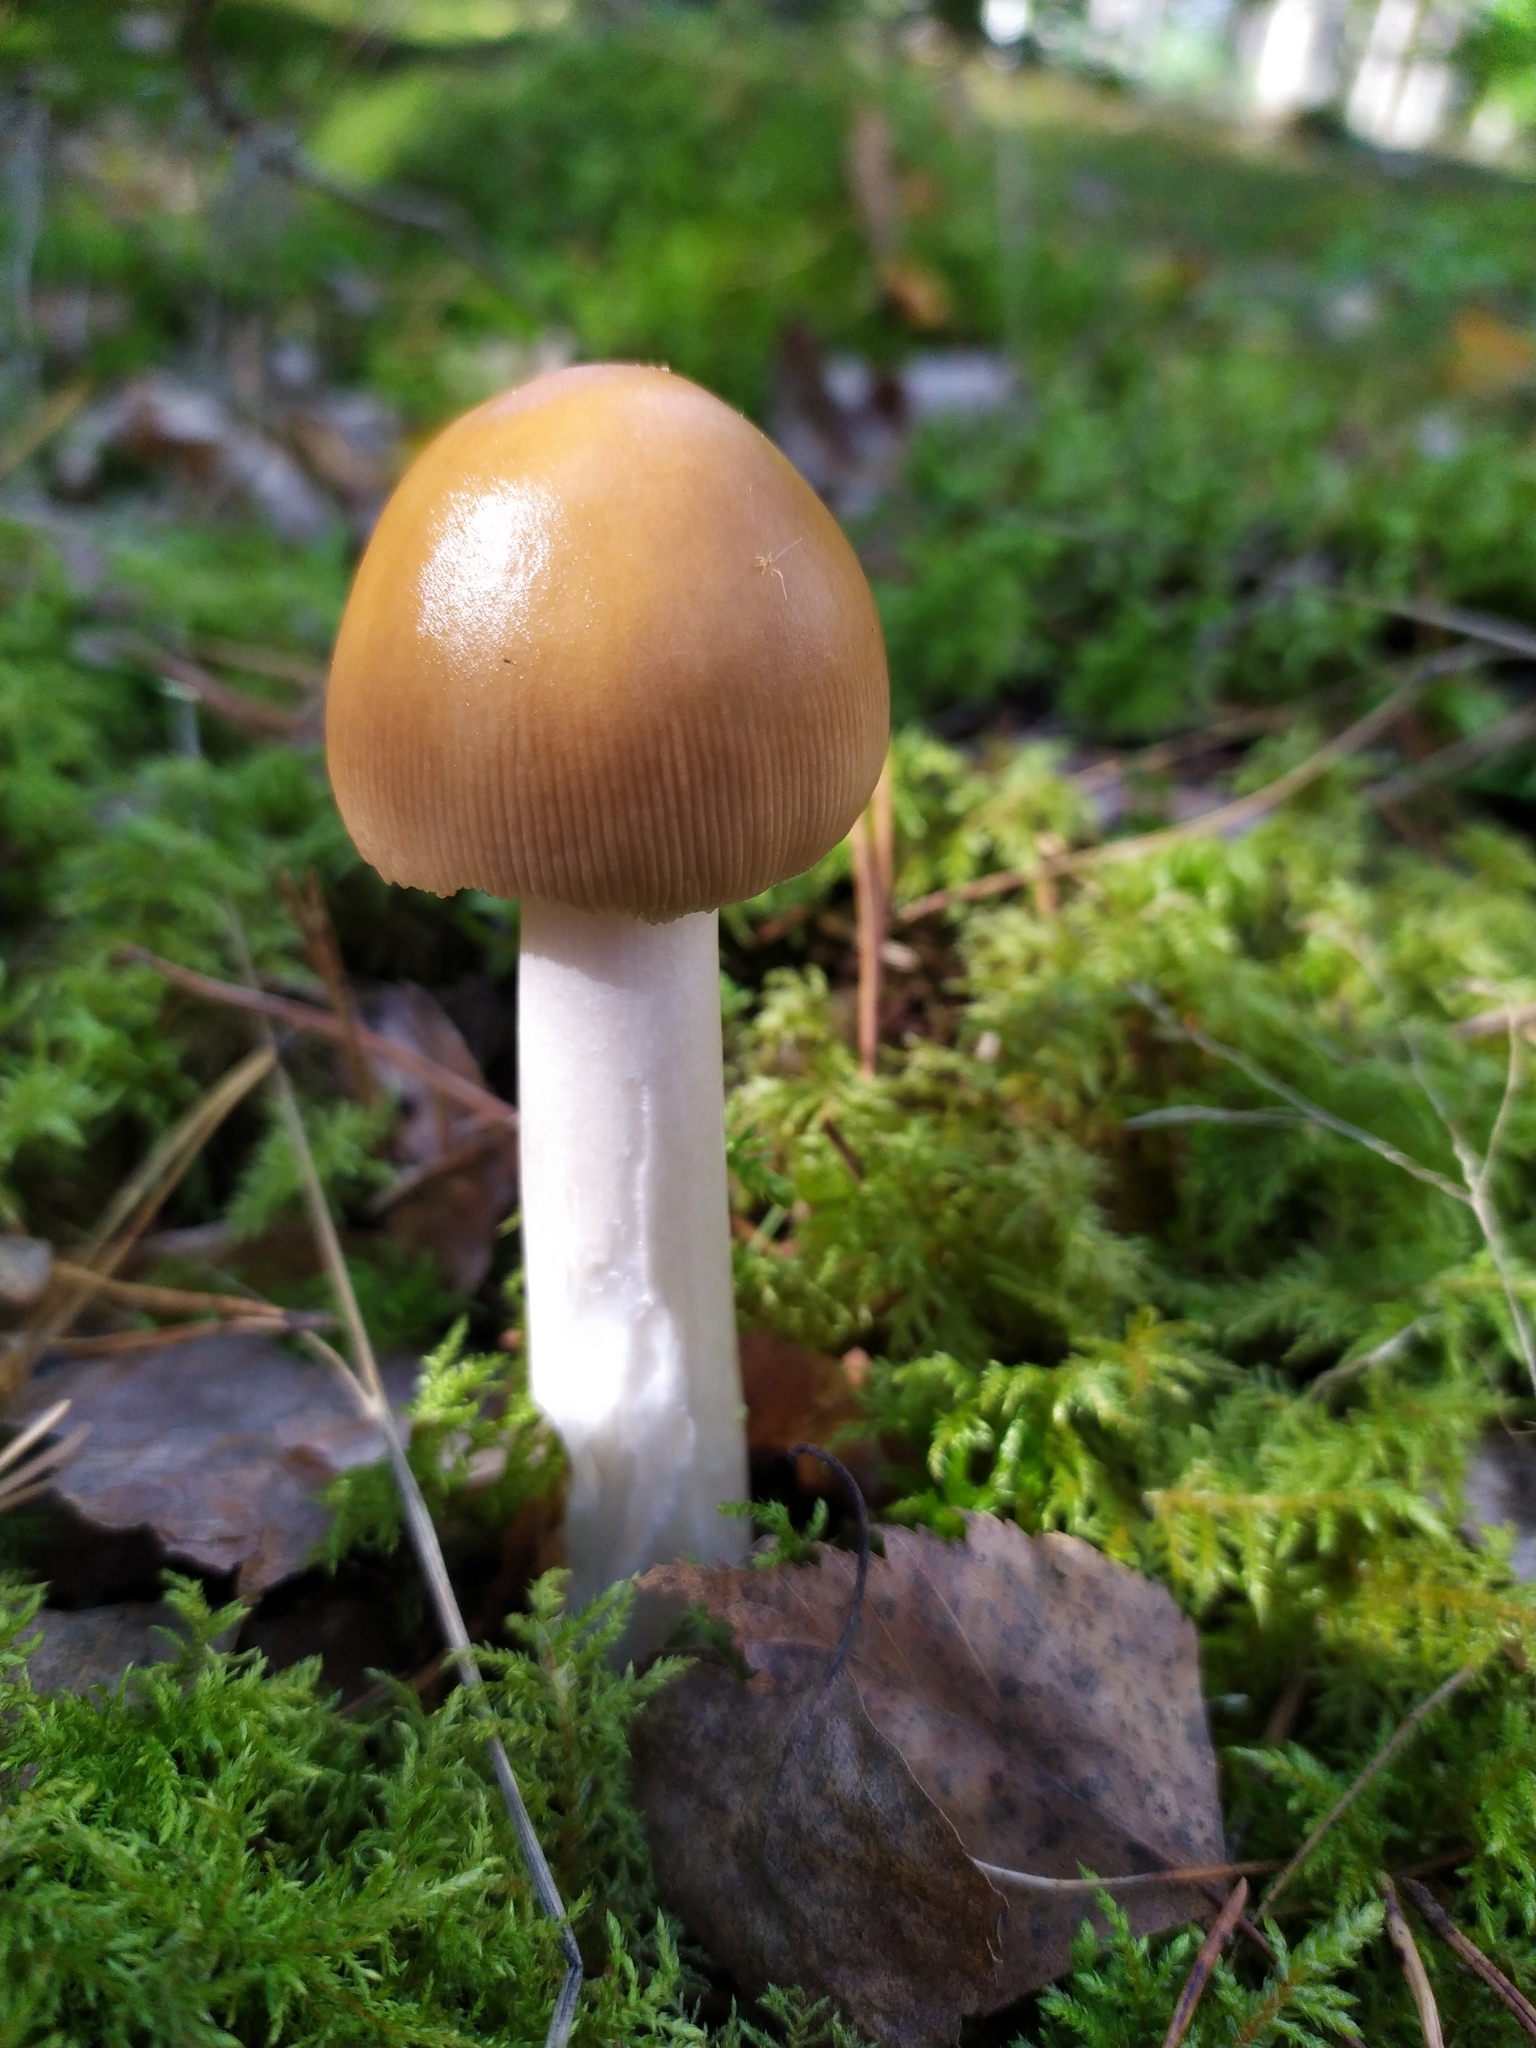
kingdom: Fungi
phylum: Basidiomycota
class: Agaricomycetes
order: Agaricales
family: Amanitaceae
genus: Amanita
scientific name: Amanita fulva
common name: Tawny grisette
